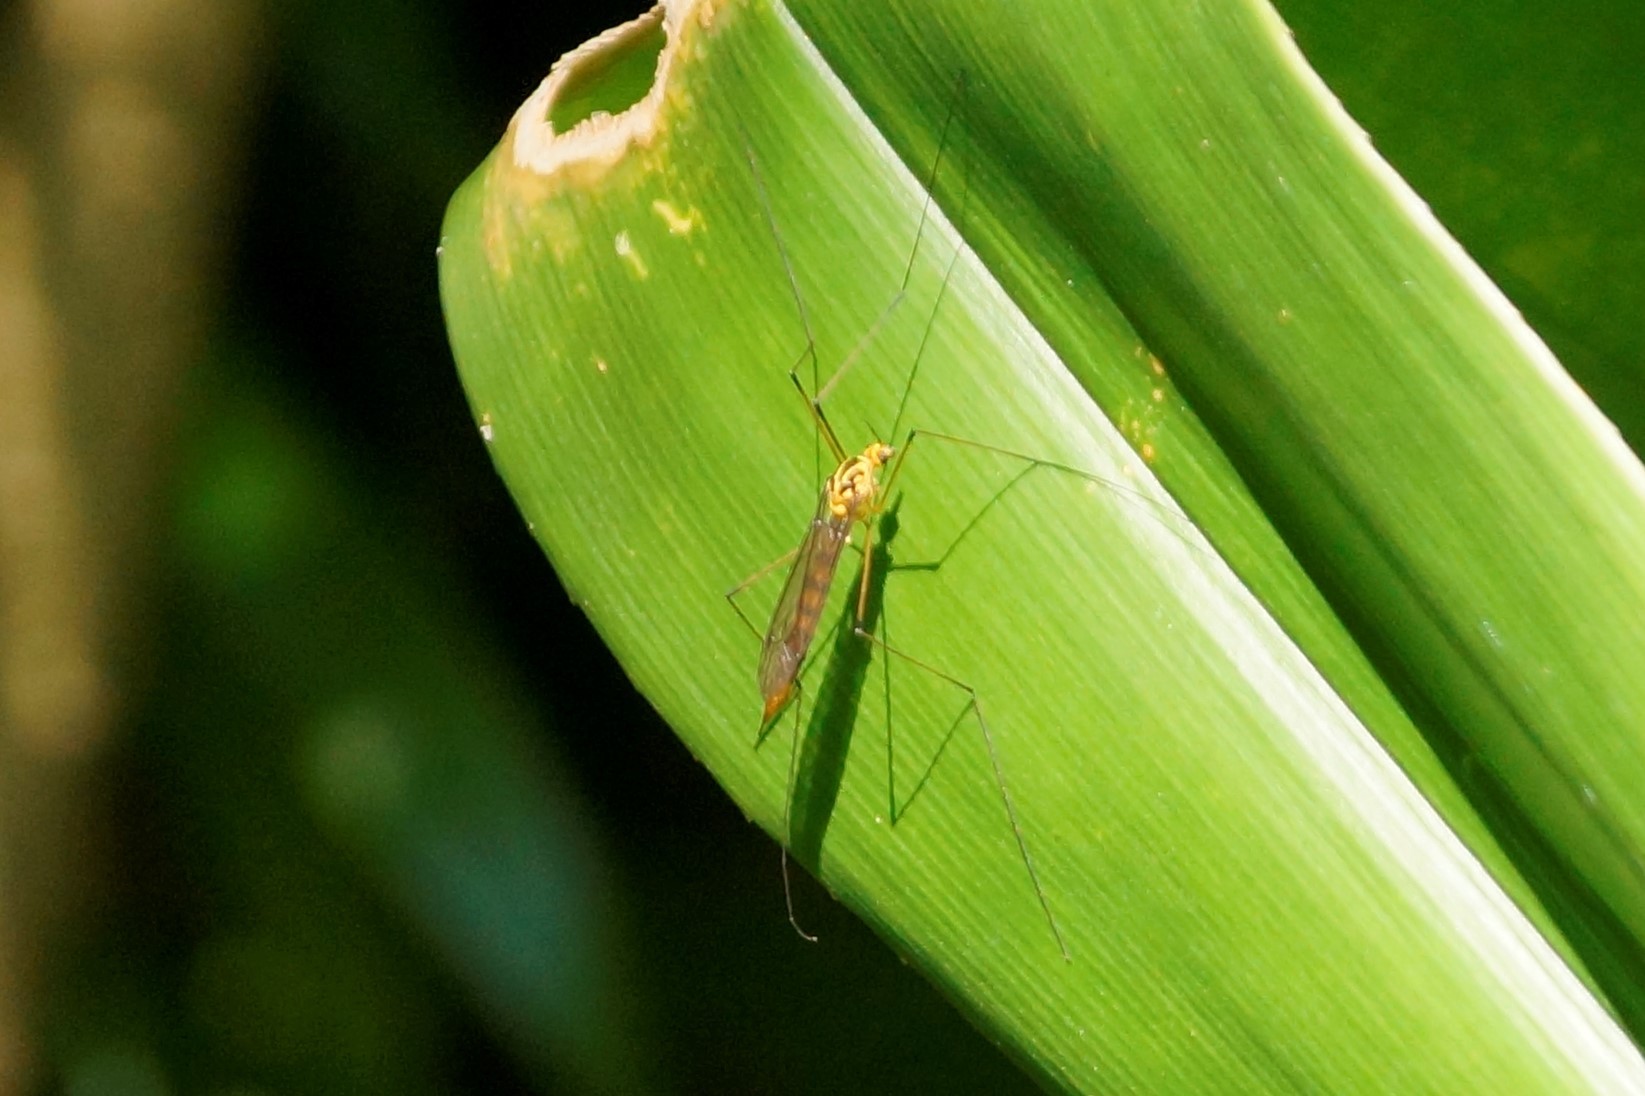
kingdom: Animalia
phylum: Arthropoda
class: Insecta
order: Diptera
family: Tipulidae
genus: Nephrotoma
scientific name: Nephrotoma australasiae
